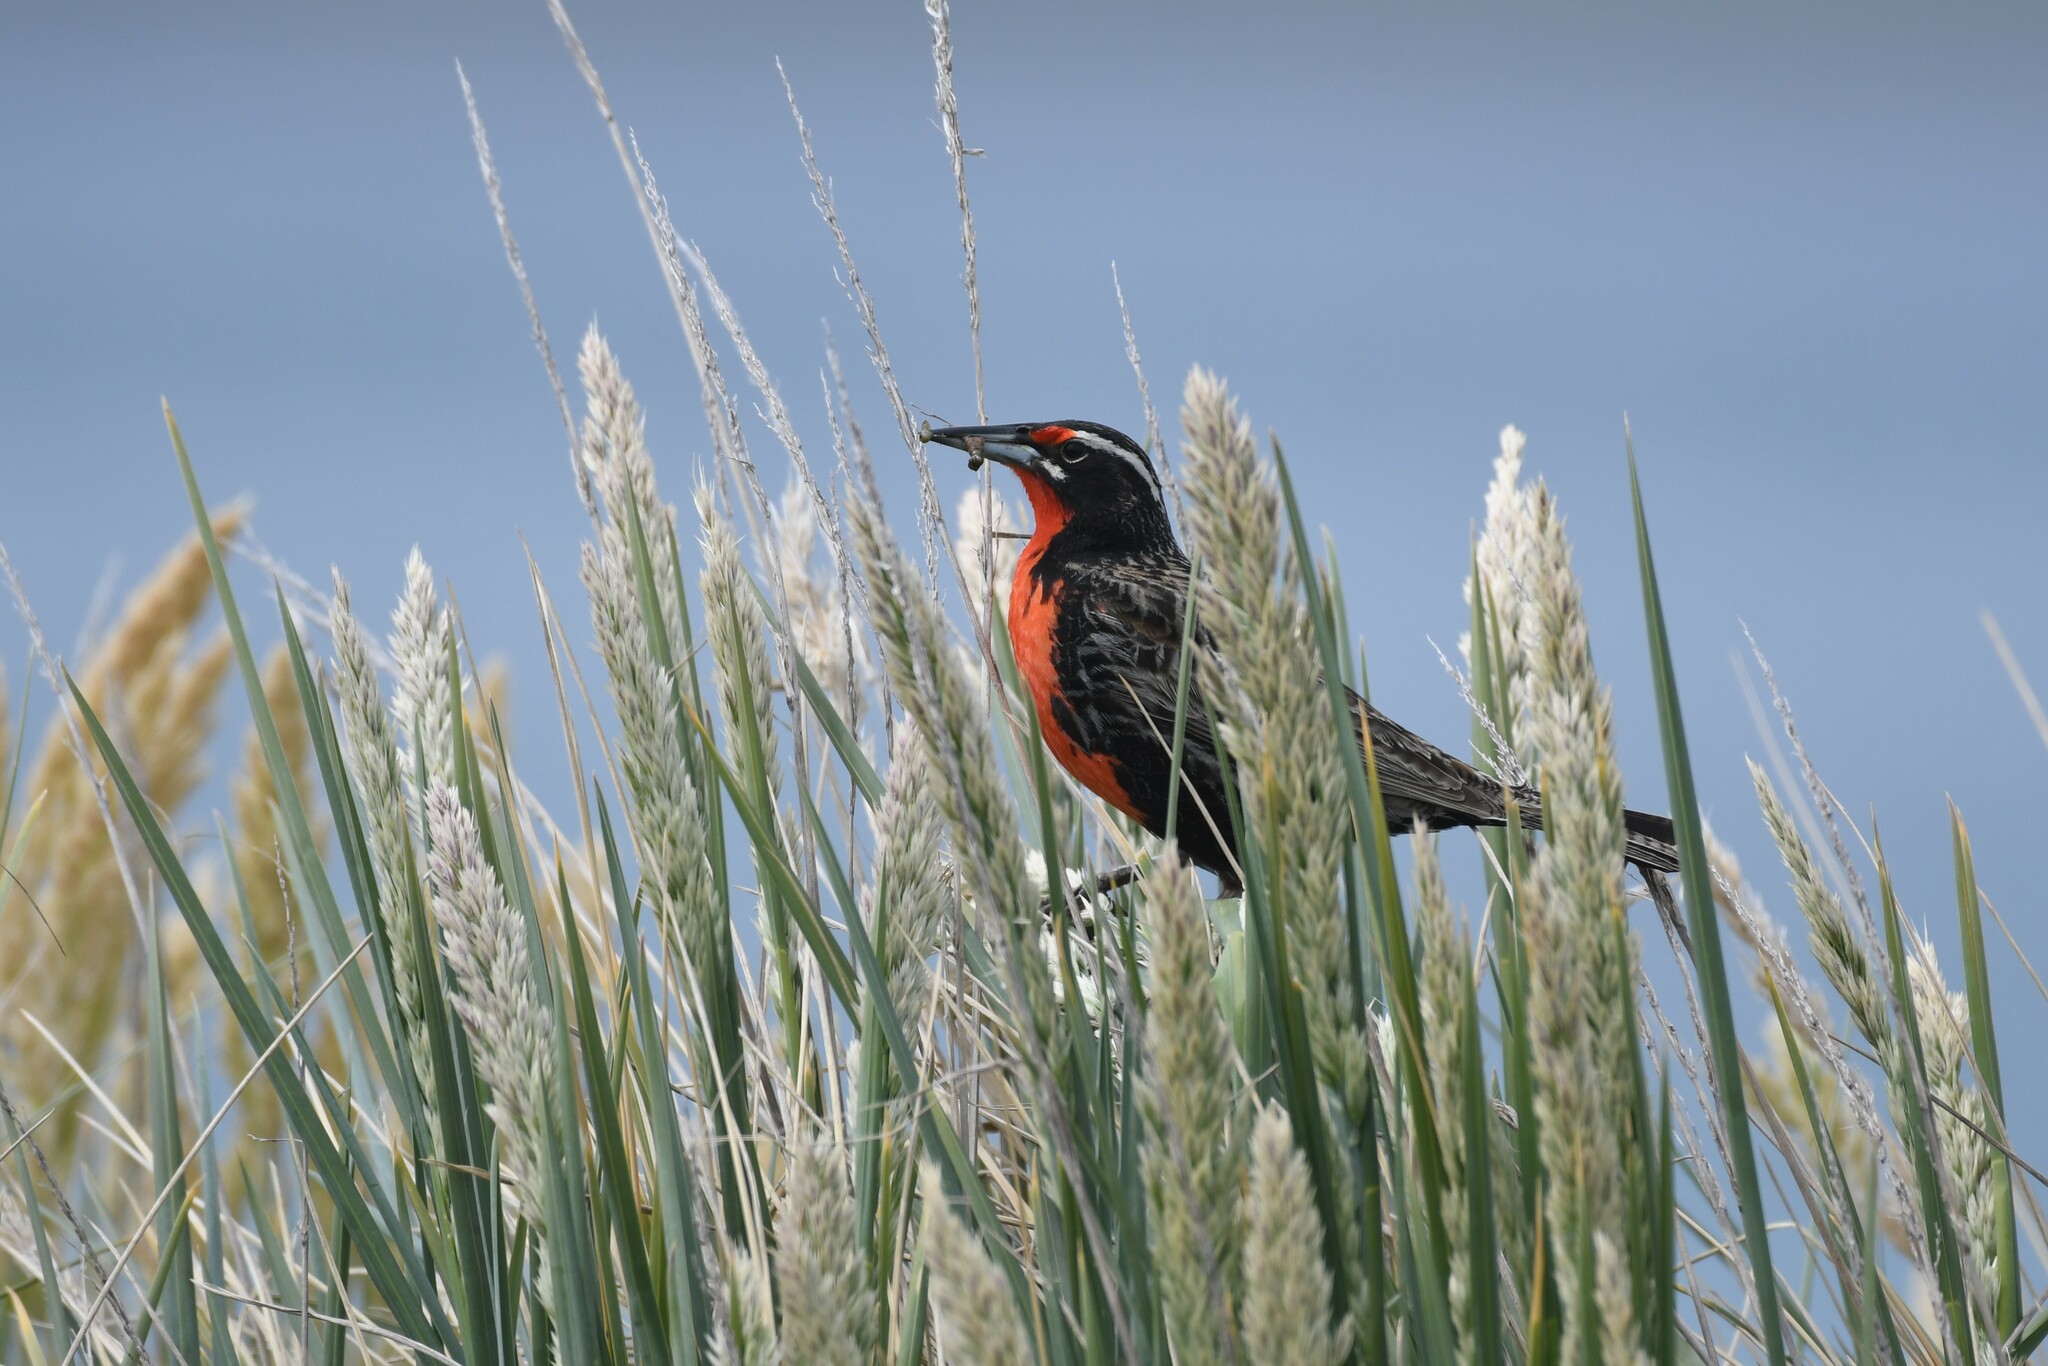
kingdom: Animalia
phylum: Chordata
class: Aves
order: Passeriformes
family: Icteridae
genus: Sturnella
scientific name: Sturnella loyca
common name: Long-tailed meadowlark
